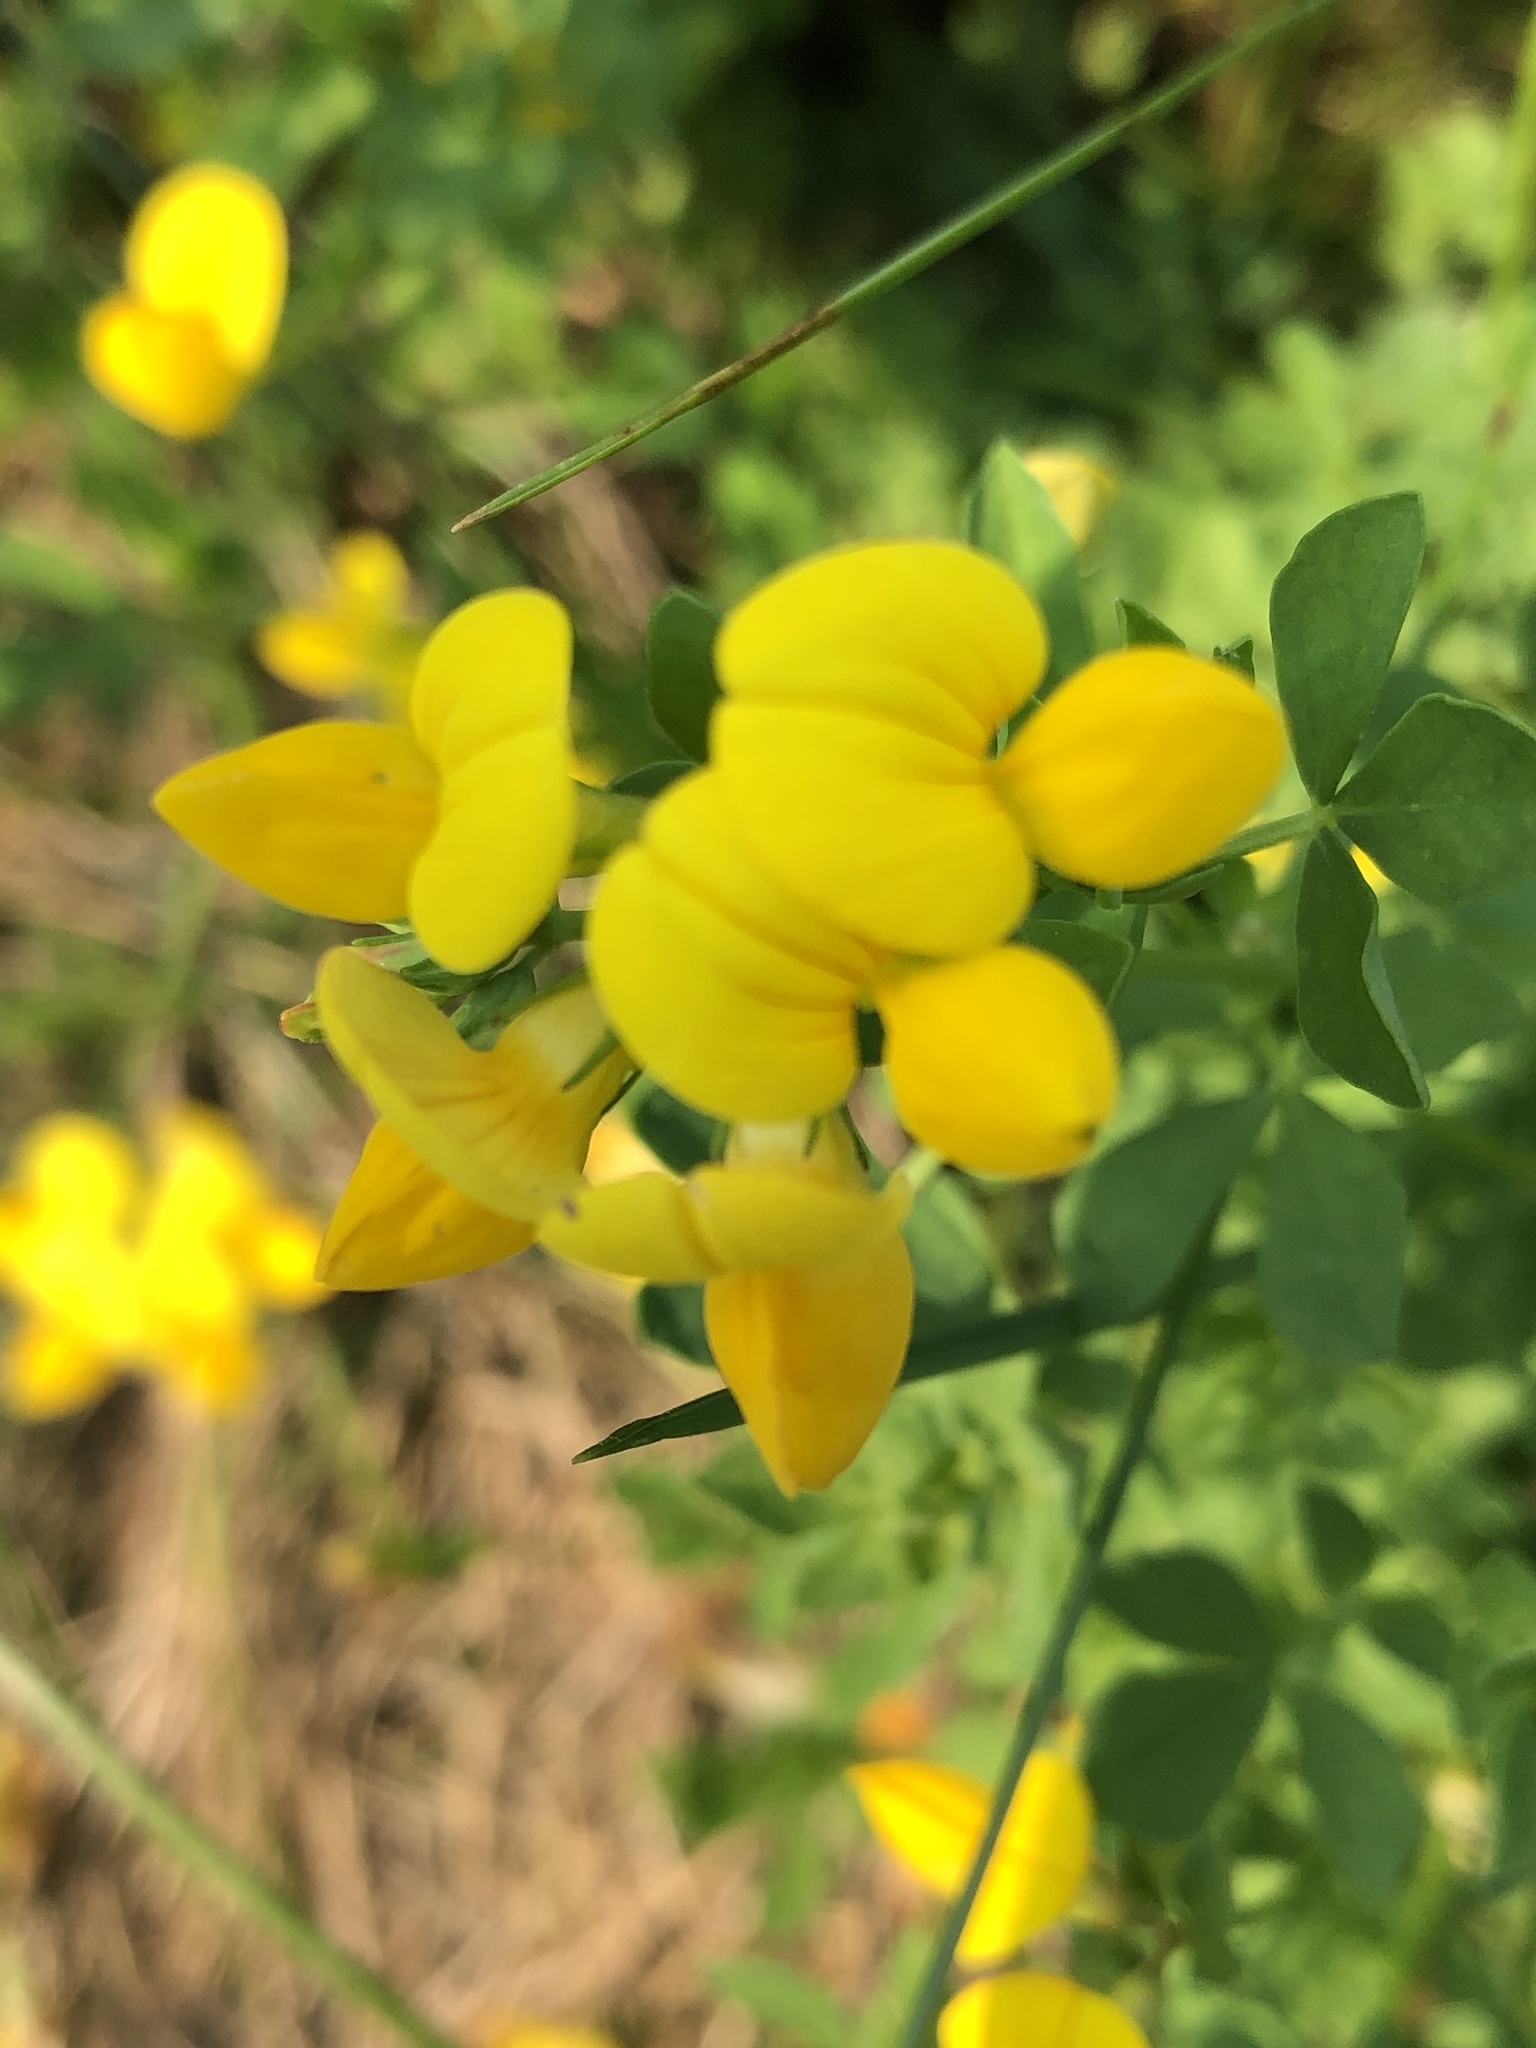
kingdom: Plantae
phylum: Tracheophyta
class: Magnoliopsida
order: Fabales
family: Fabaceae
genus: Lotus
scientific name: Lotus corniculatus
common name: Common bird's-foot-trefoil
